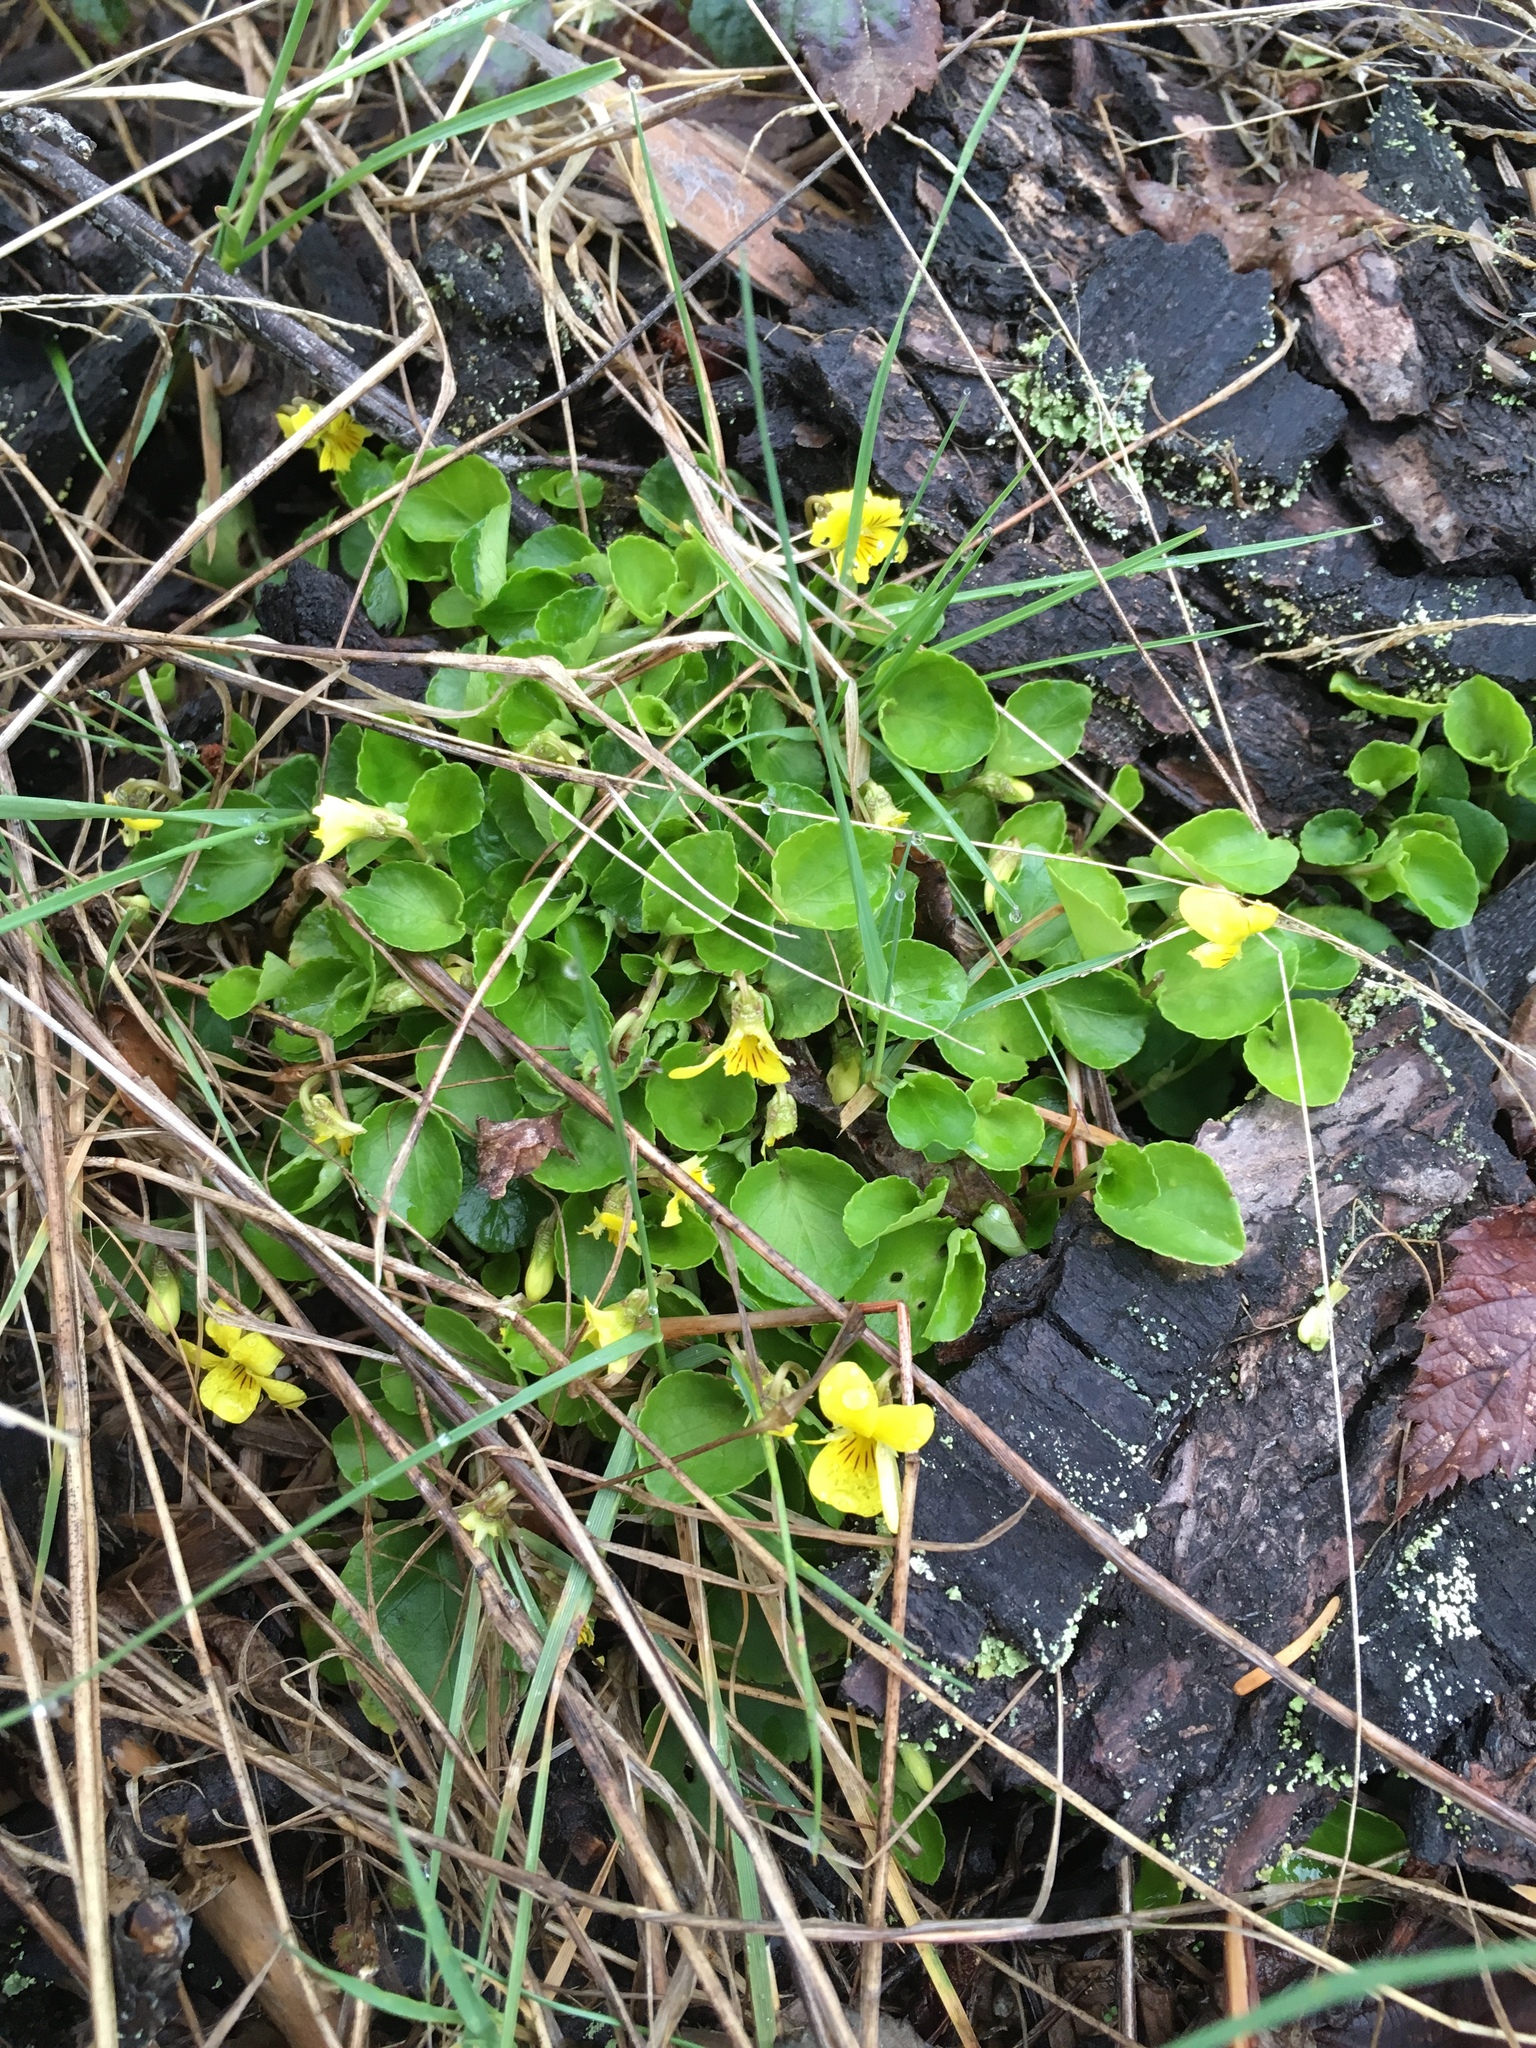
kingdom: Plantae
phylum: Tracheophyta
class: Magnoliopsida
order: Malpighiales
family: Violaceae
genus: Viola
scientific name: Viola sempervirens
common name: Evergreen violet
